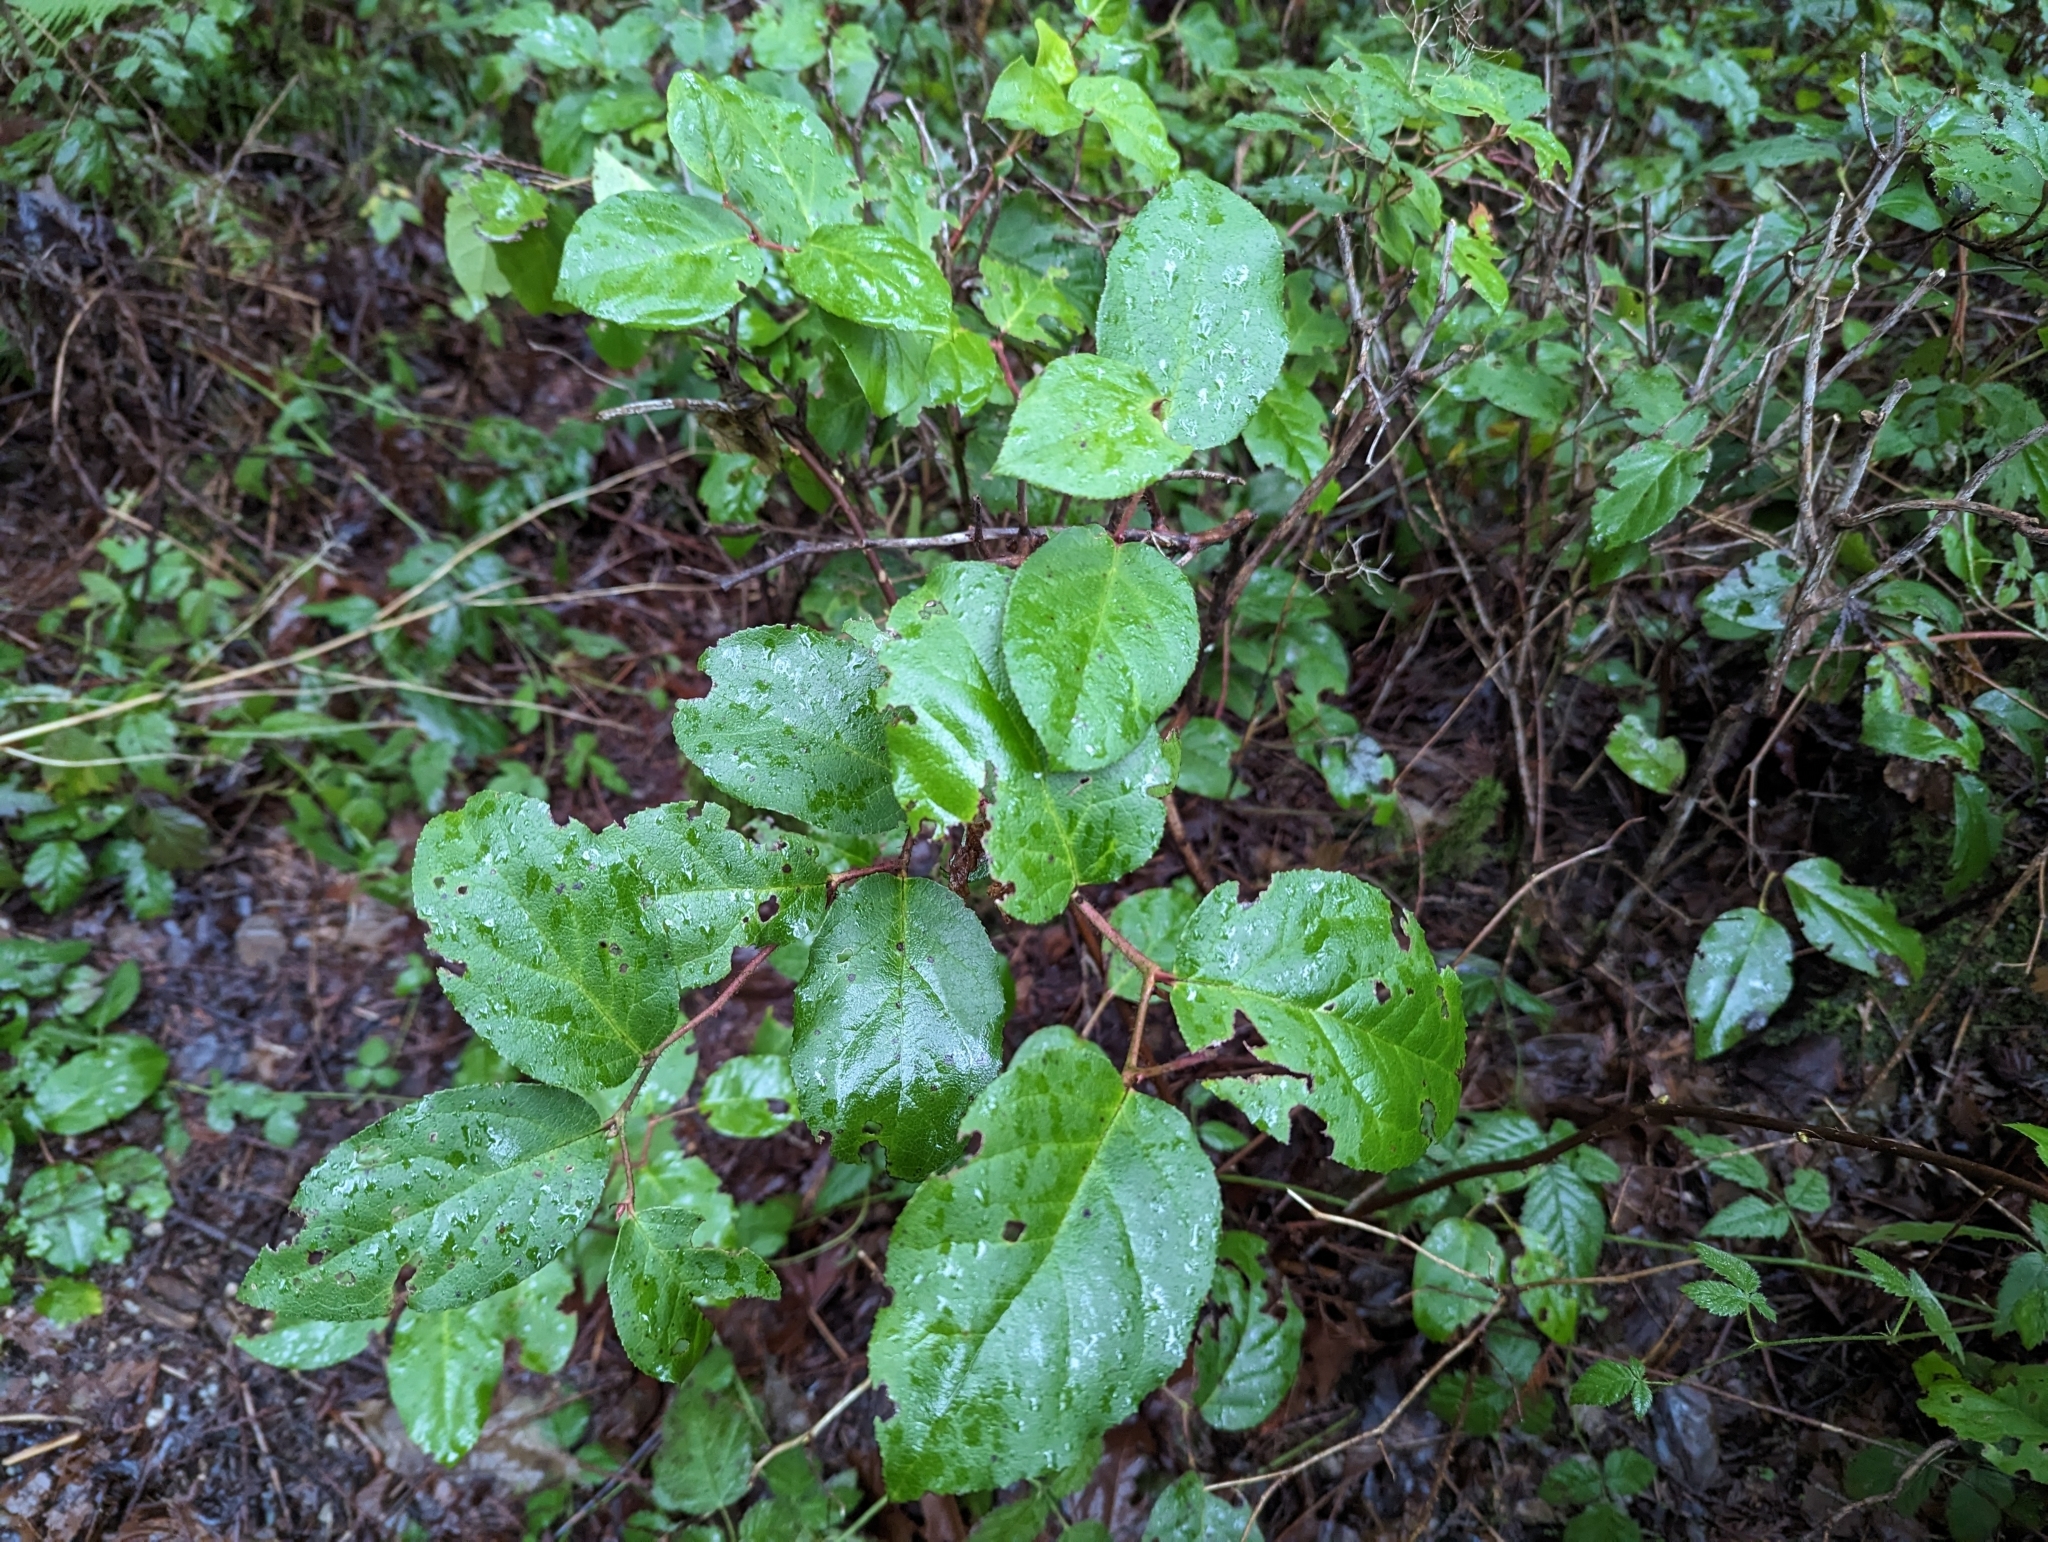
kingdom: Plantae
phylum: Tracheophyta
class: Magnoliopsida
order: Ericales
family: Ericaceae
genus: Gaultheria
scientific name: Gaultheria shallon
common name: Shallon
